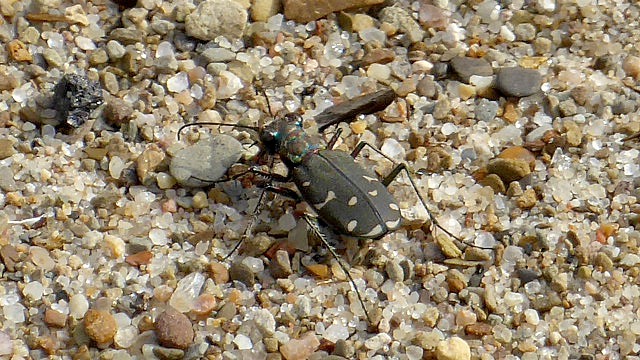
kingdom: Animalia
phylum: Arthropoda
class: Insecta
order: Coleoptera
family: Carabidae
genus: Cicindela
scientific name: Cicindela duodecimguttata
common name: Twelve-spotted tiger beetle
